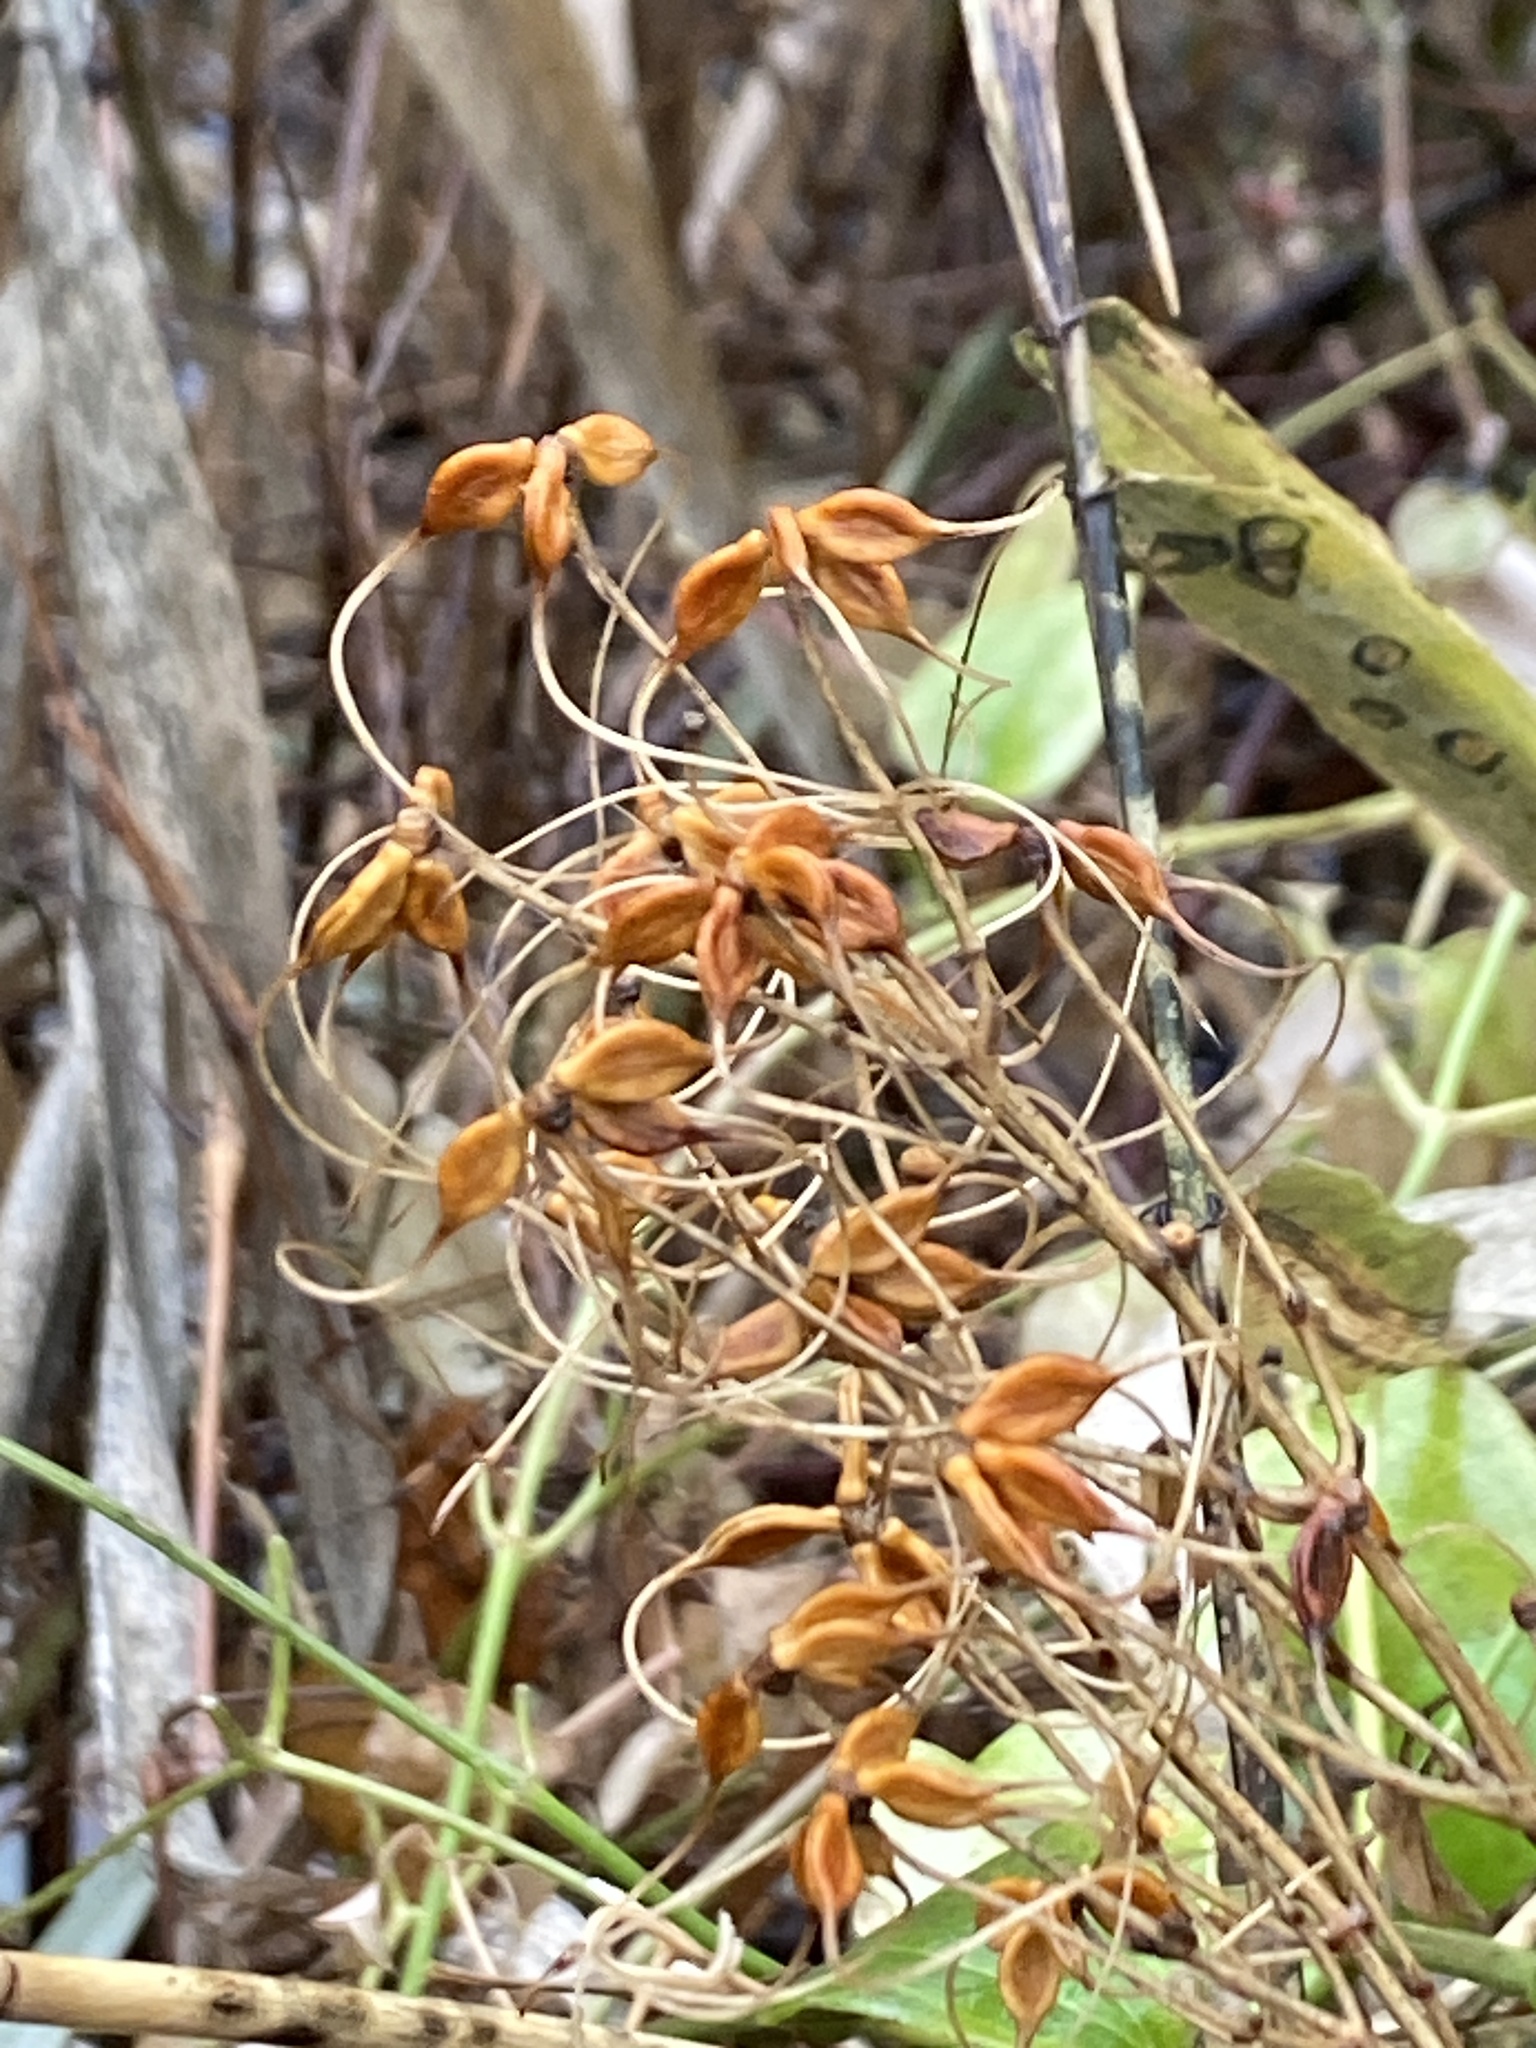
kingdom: Plantae
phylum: Tracheophyta
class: Magnoliopsida
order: Ranunculales
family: Ranunculaceae
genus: Clematis
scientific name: Clematis terniflora
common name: Sweet autumn clematis
